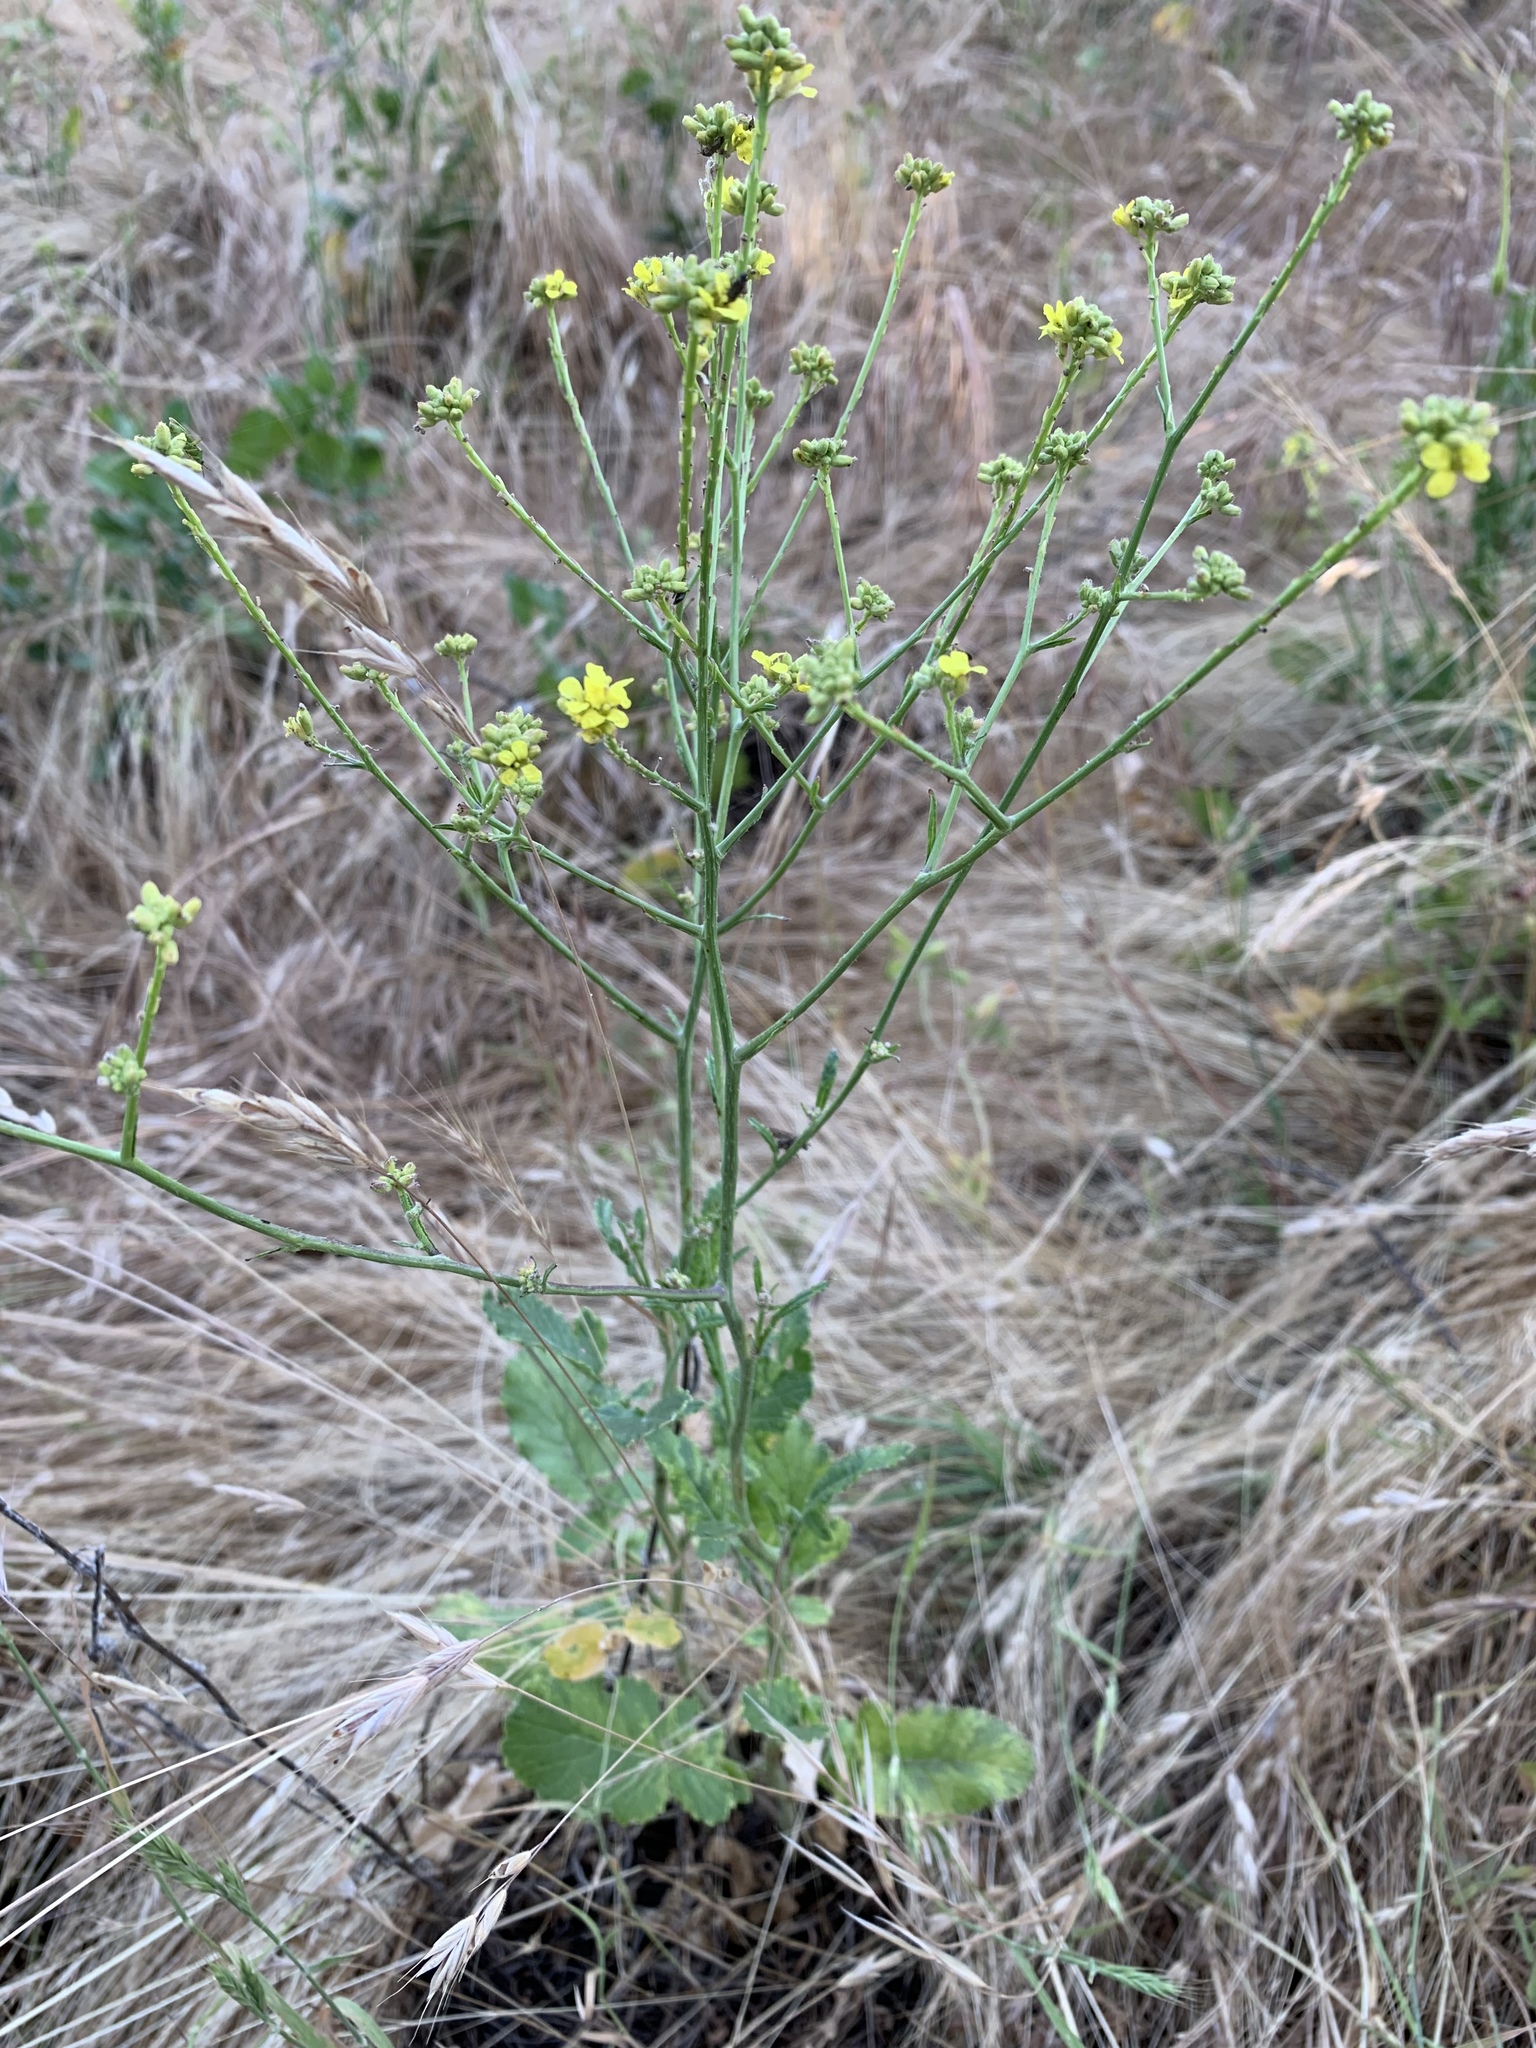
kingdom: Plantae
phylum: Tracheophyta
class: Magnoliopsida
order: Brassicales
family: Brassicaceae
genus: Hirschfeldia
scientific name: Hirschfeldia incana
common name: Hoary mustard
